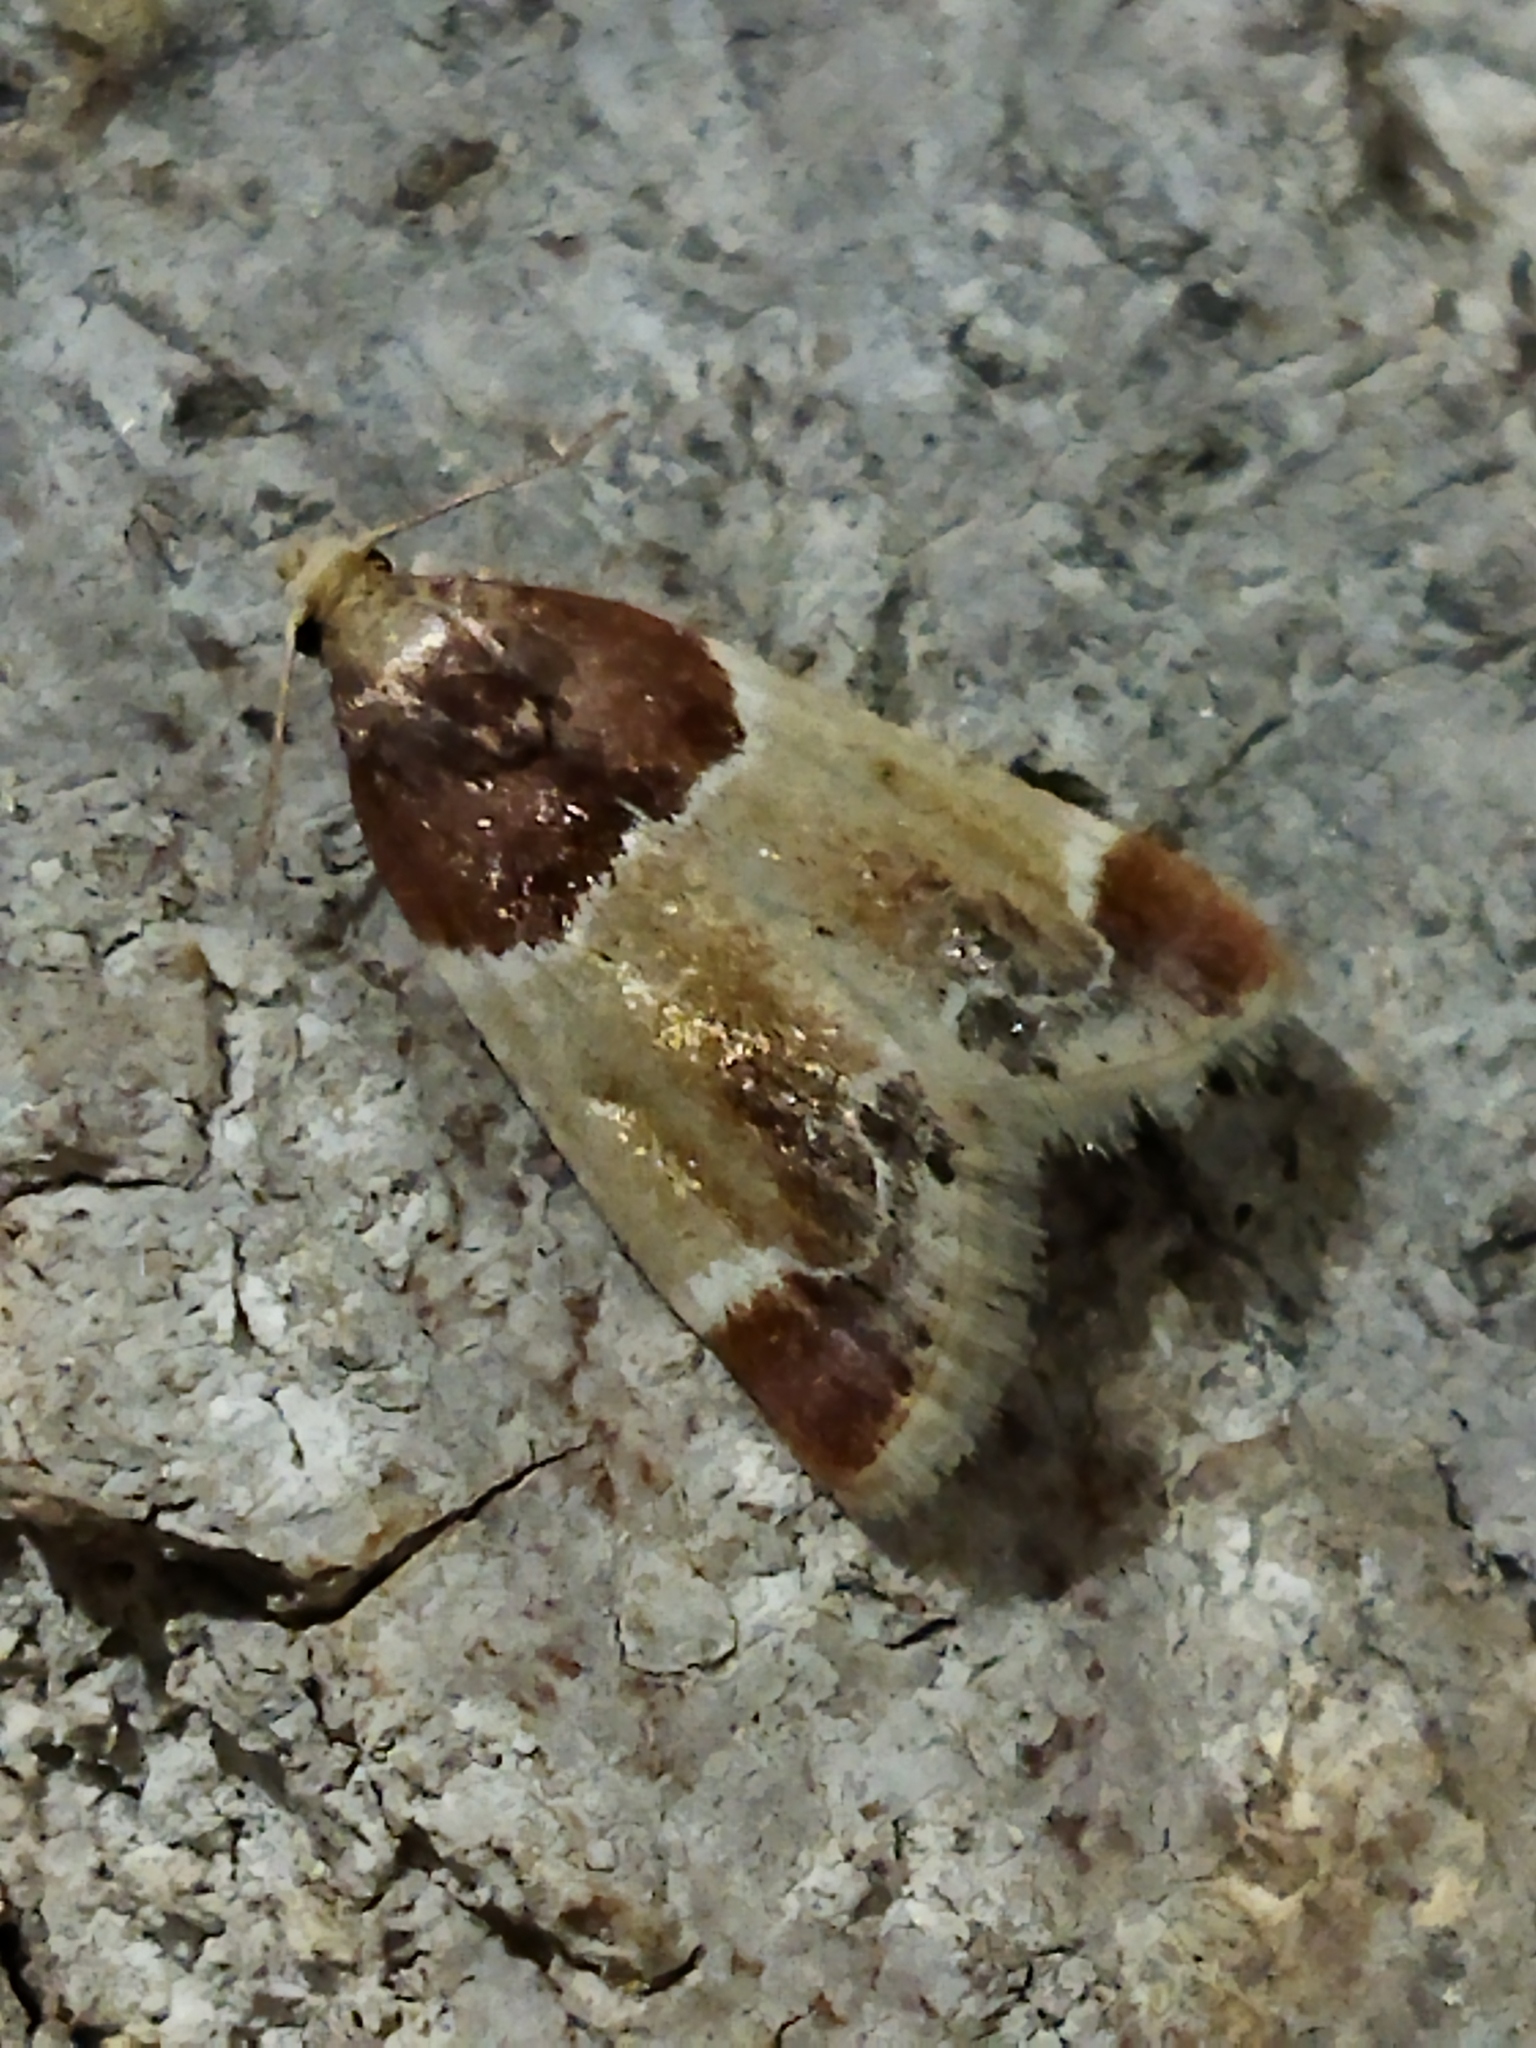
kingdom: Animalia
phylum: Arthropoda
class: Insecta
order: Lepidoptera
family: Pyralidae
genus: Pyralis
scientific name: Pyralis farinalis
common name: Meal moth
